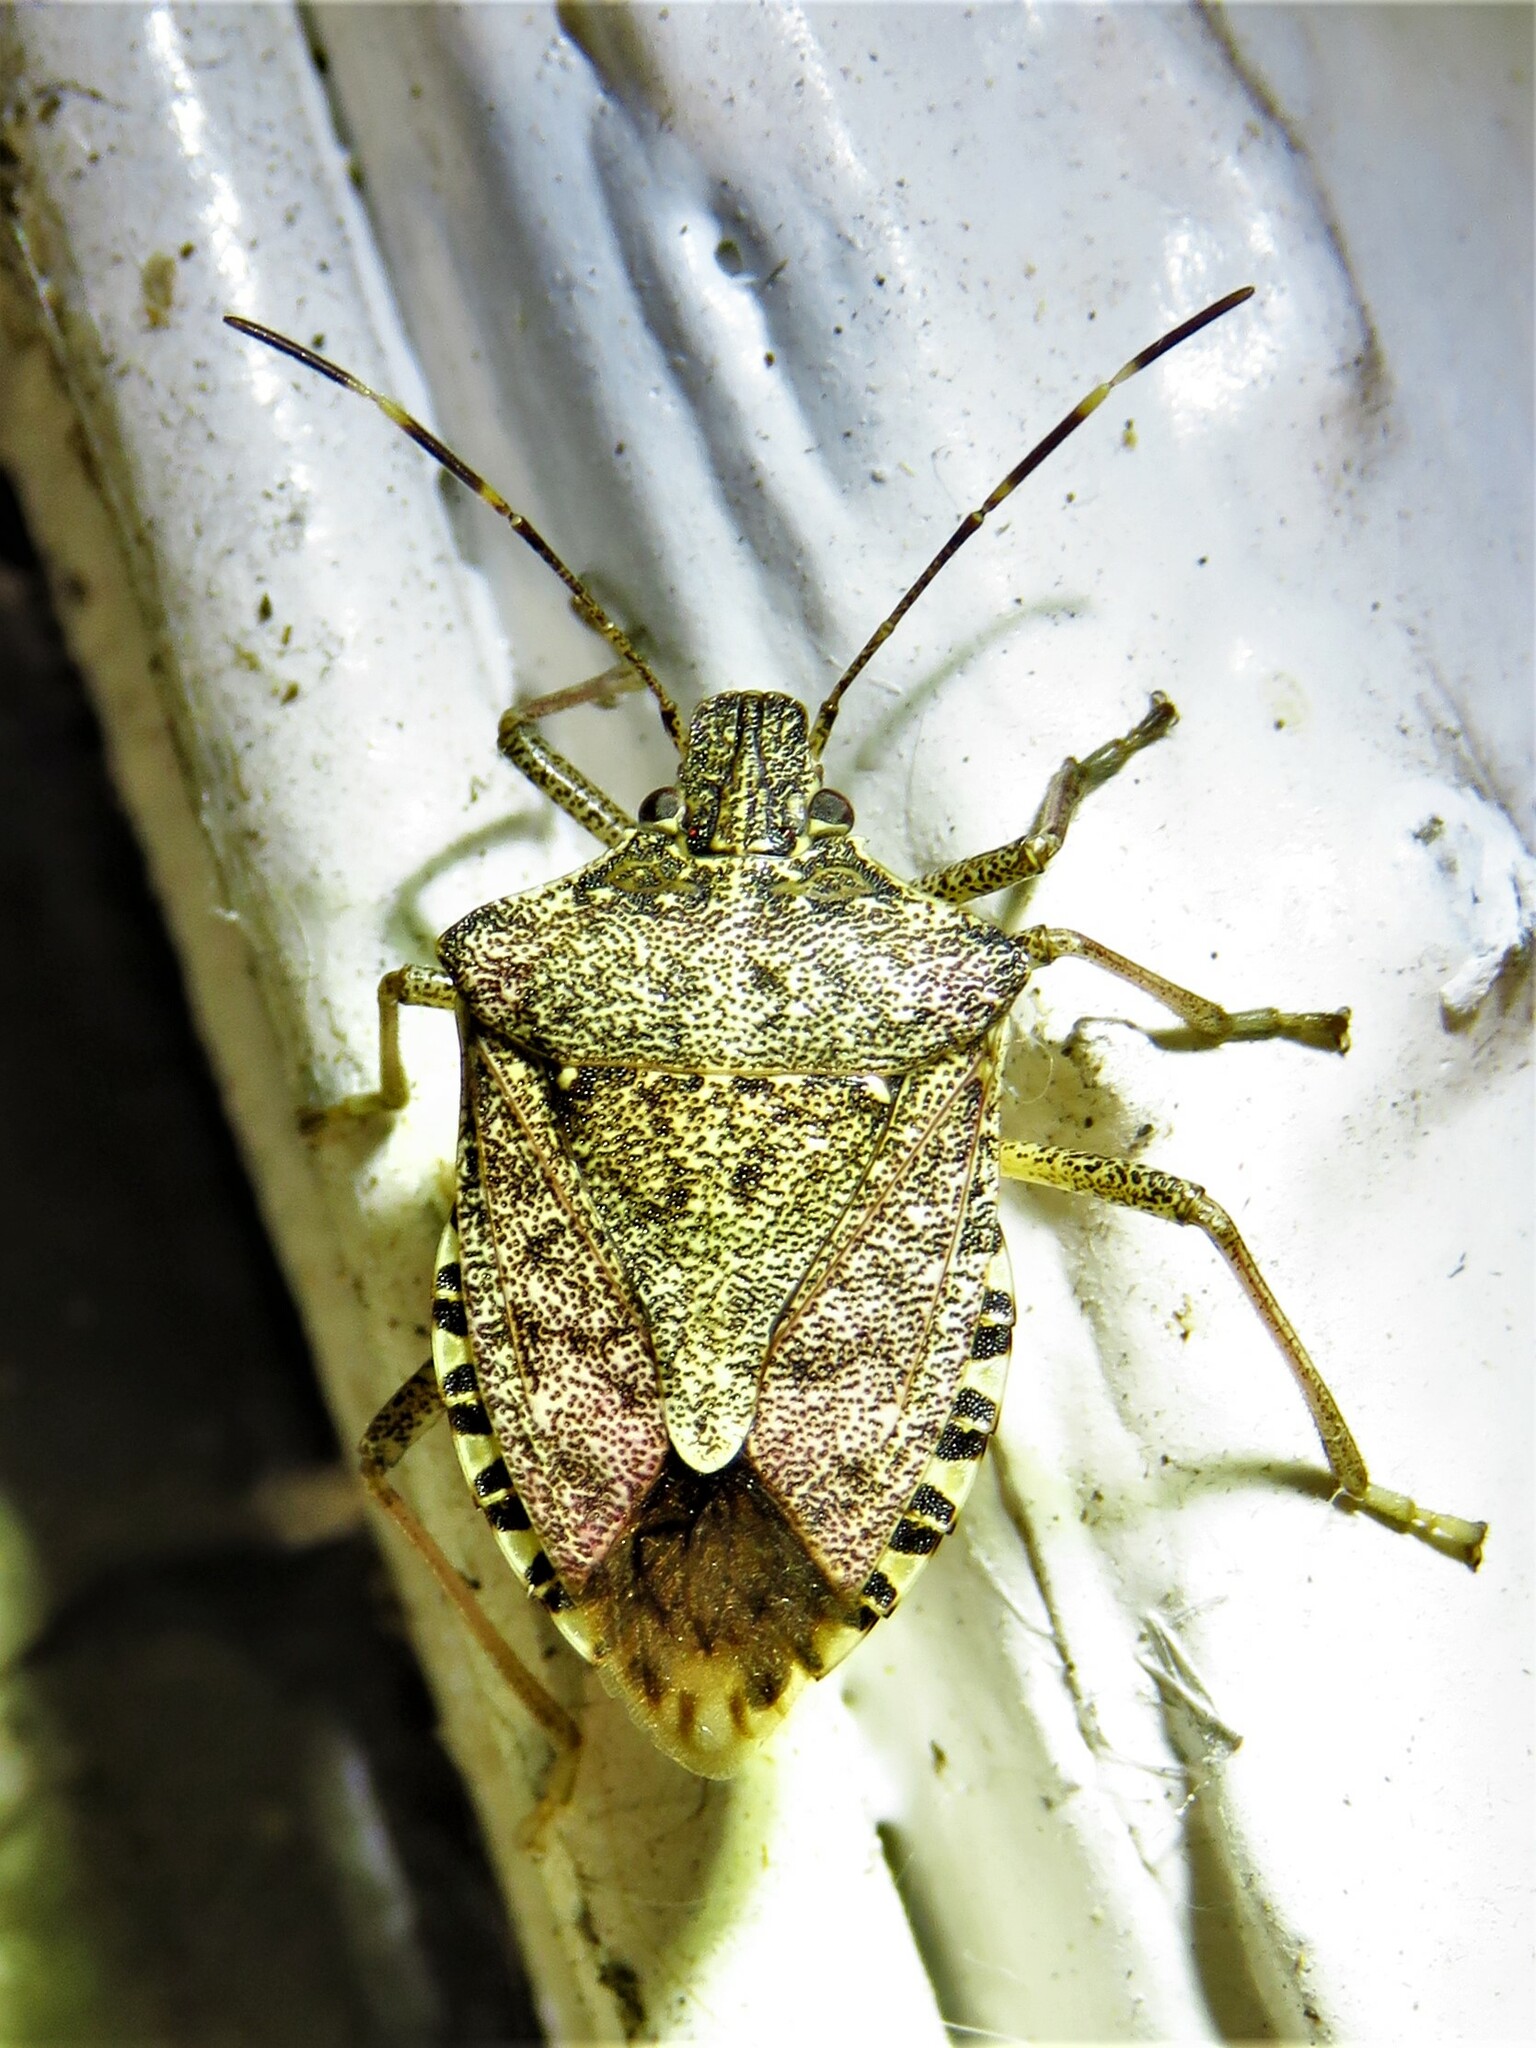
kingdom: Animalia
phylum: Arthropoda
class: Insecta
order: Hemiptera
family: Pentatomidae
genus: Halyomorpha
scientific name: Halyomorpha halys
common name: Brown marmorated stink bug
